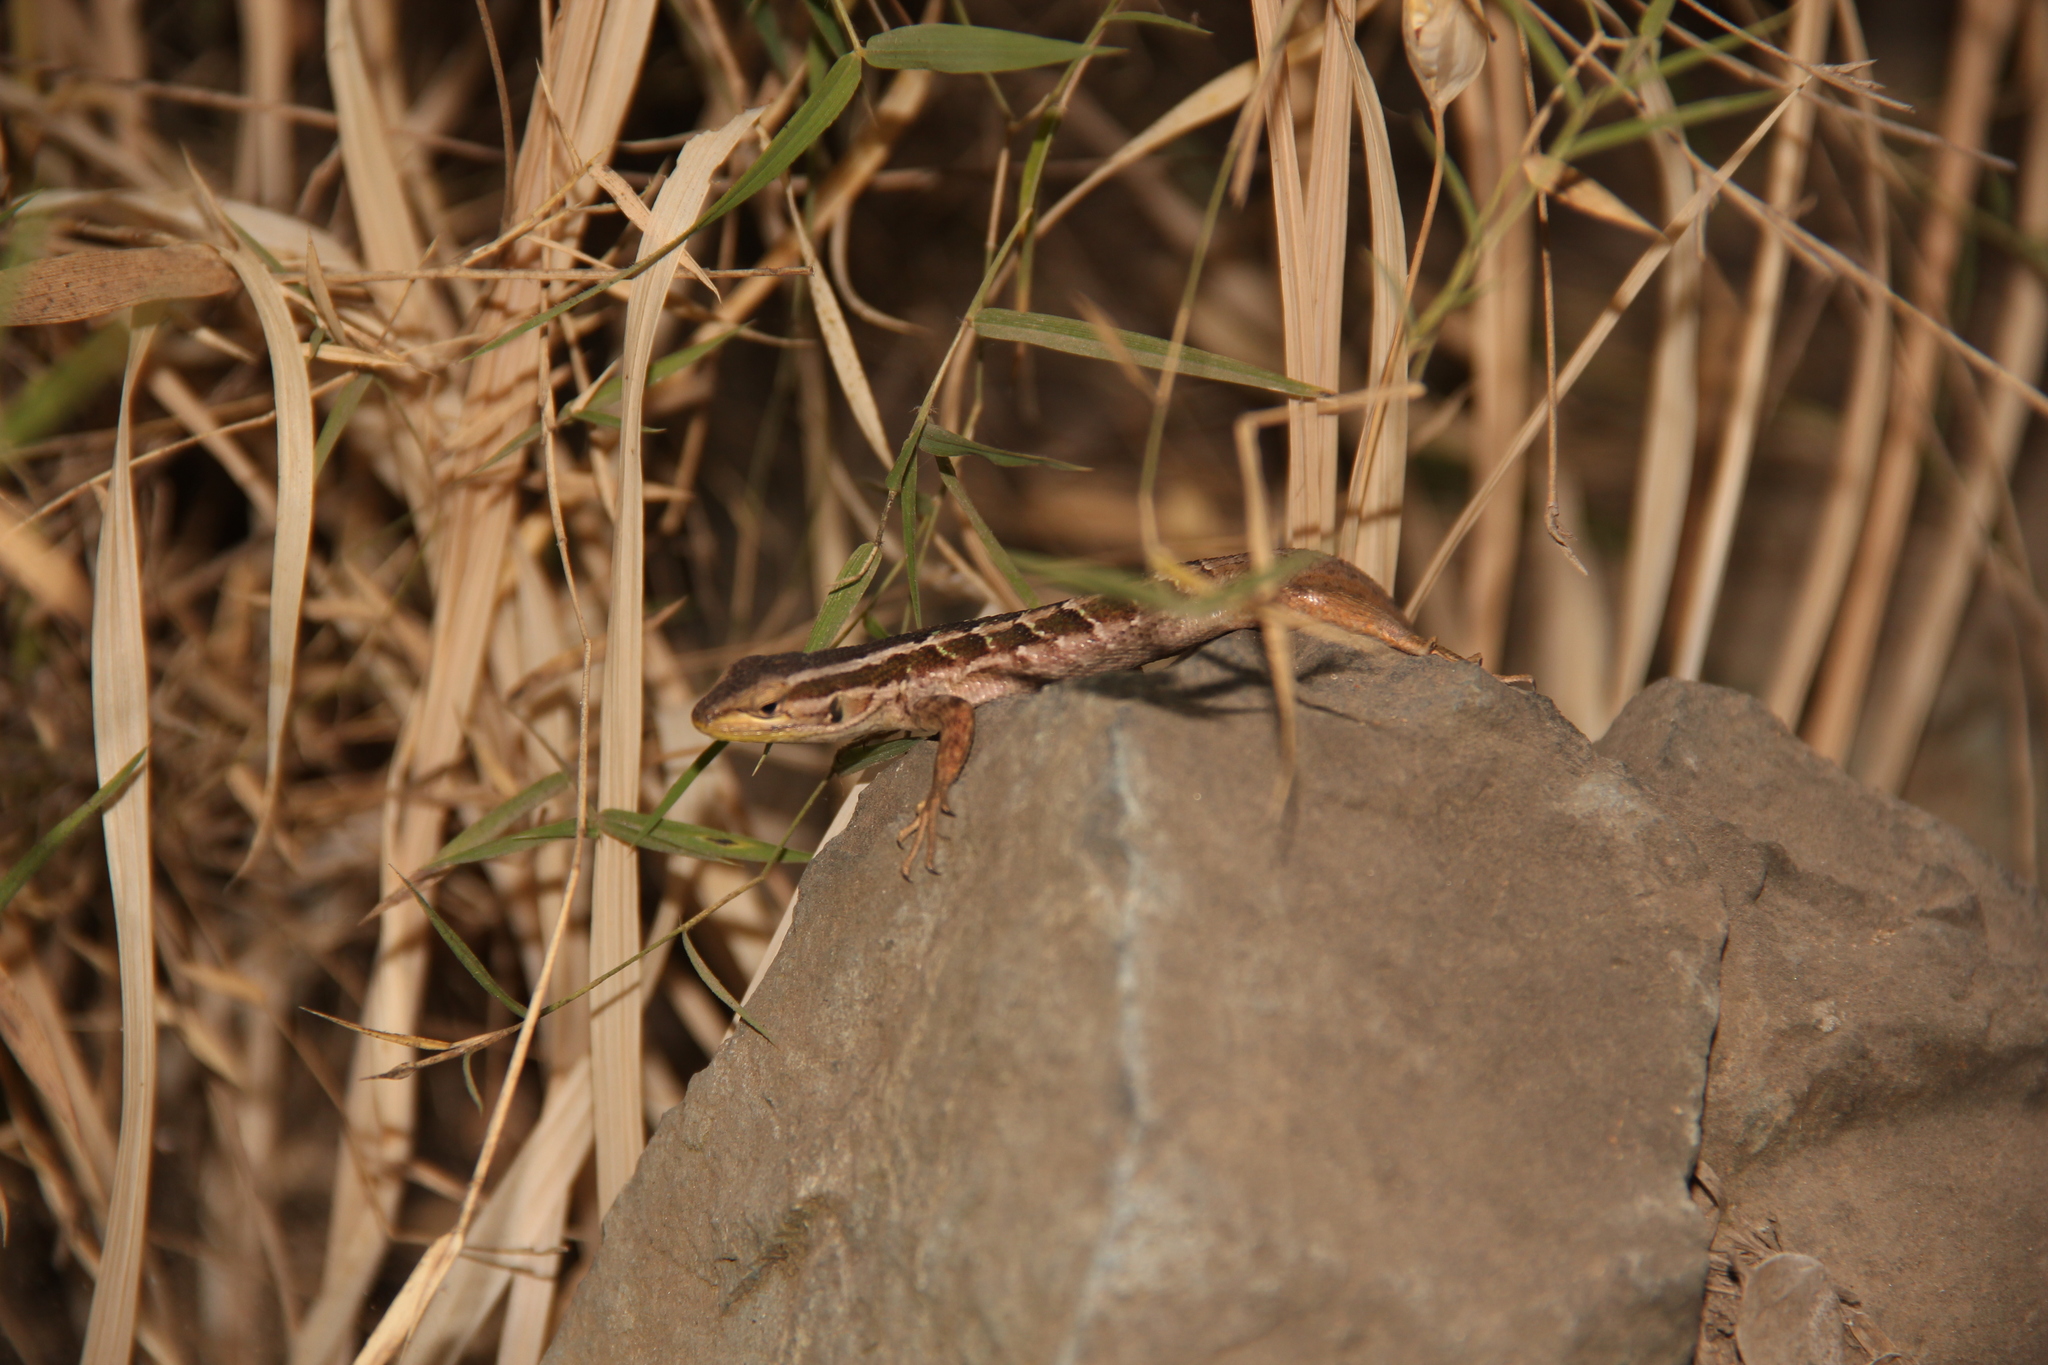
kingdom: Animalia
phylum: Chordata
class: Squamata
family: Liolaemidae
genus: Liolaemus
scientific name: Liolaemus schroederi
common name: Schroeder's tree iguana
